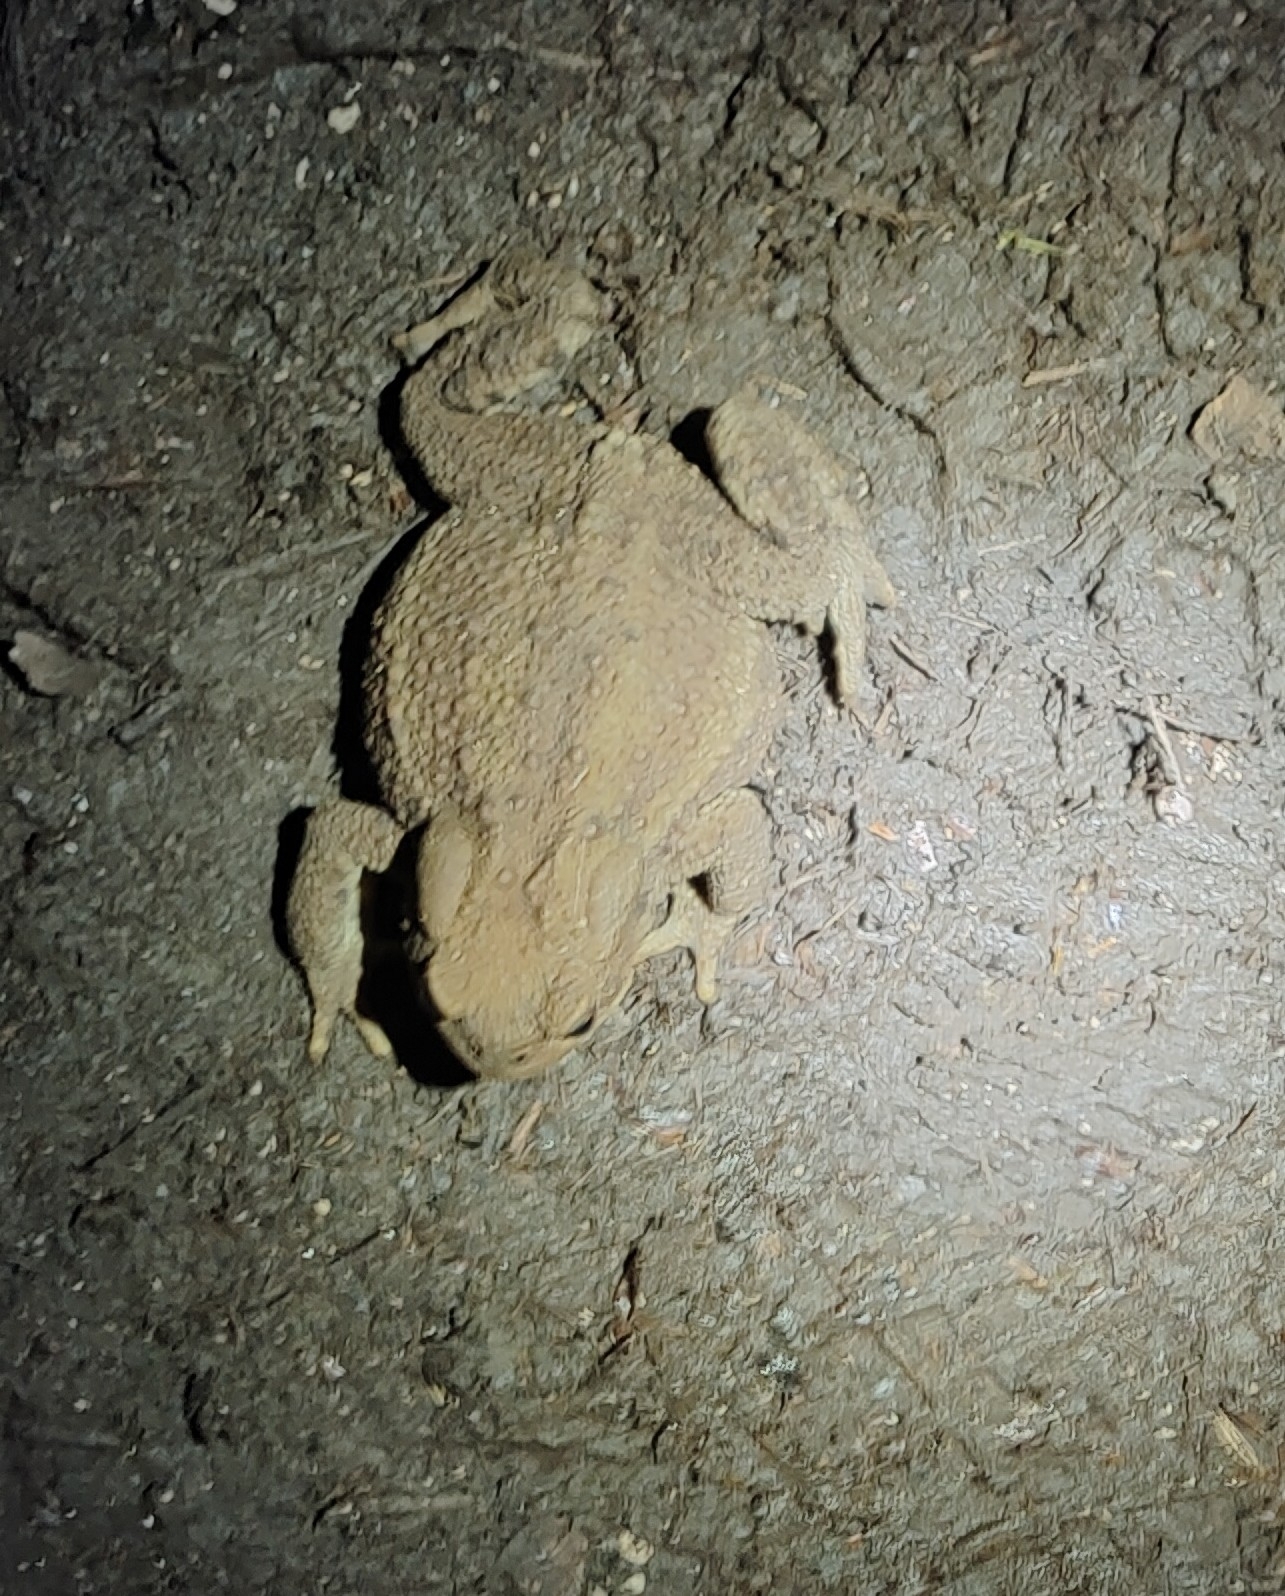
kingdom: Animalia
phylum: Chordata
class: Amphibia
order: Anura
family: Bufonidae
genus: Bufo
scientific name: Bufo bufo
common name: Common toad
